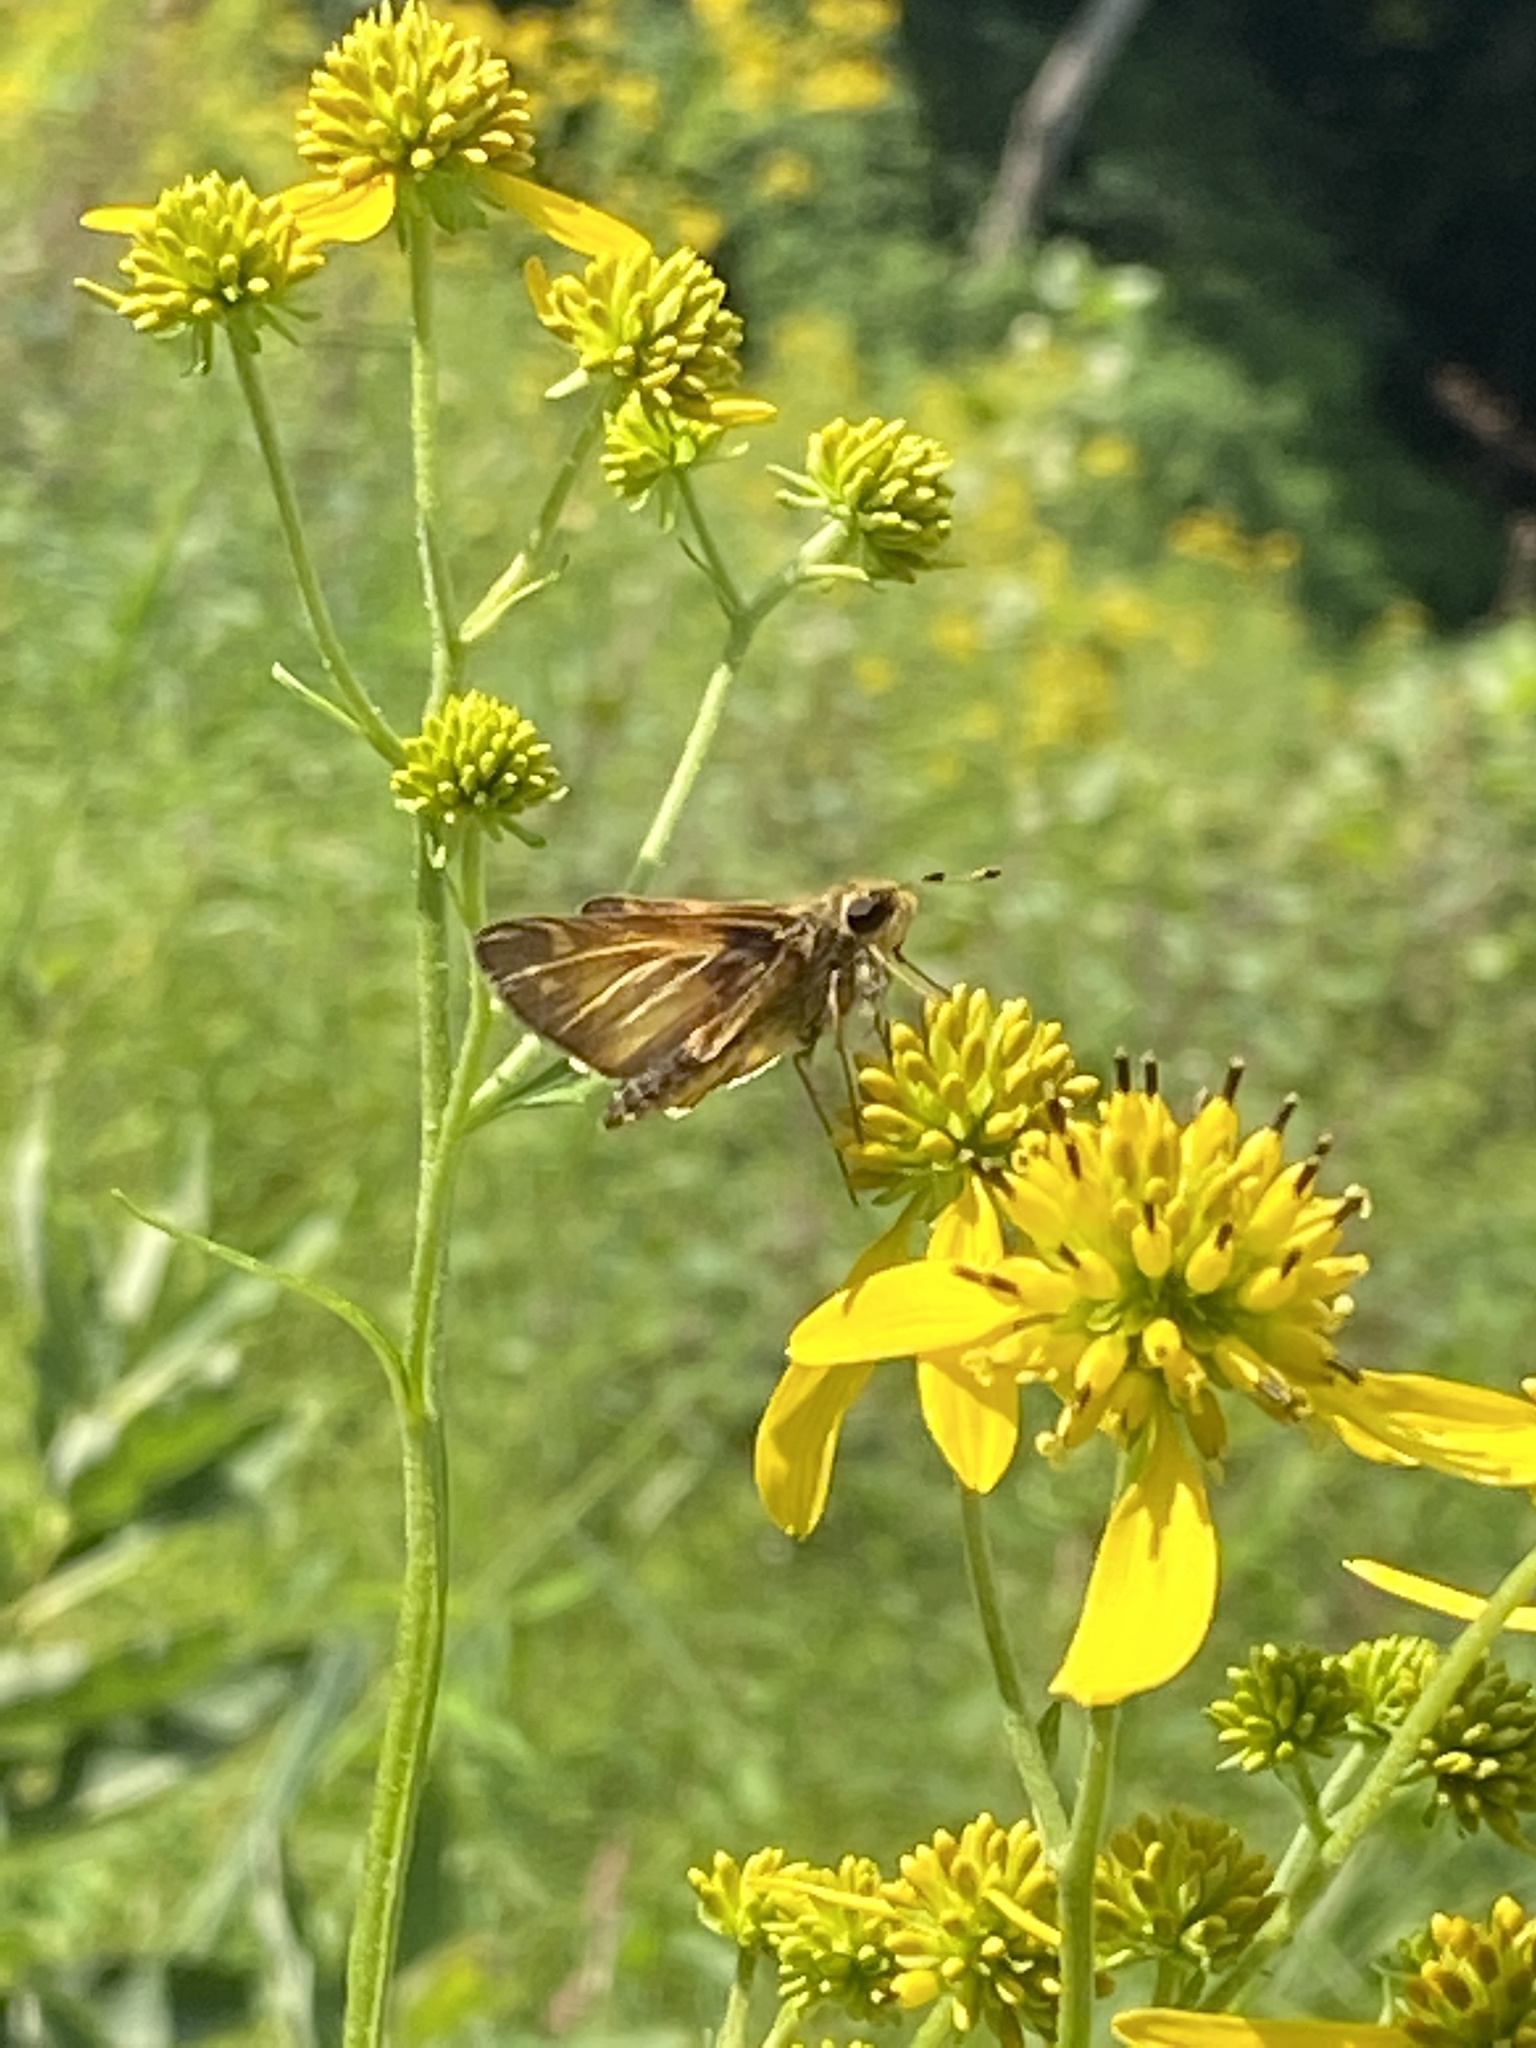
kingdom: Animalia
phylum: Arthropoda
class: Insecta
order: Lepidoptera
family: Hesperiidae
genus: Atalopedes
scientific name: Atalopedes
